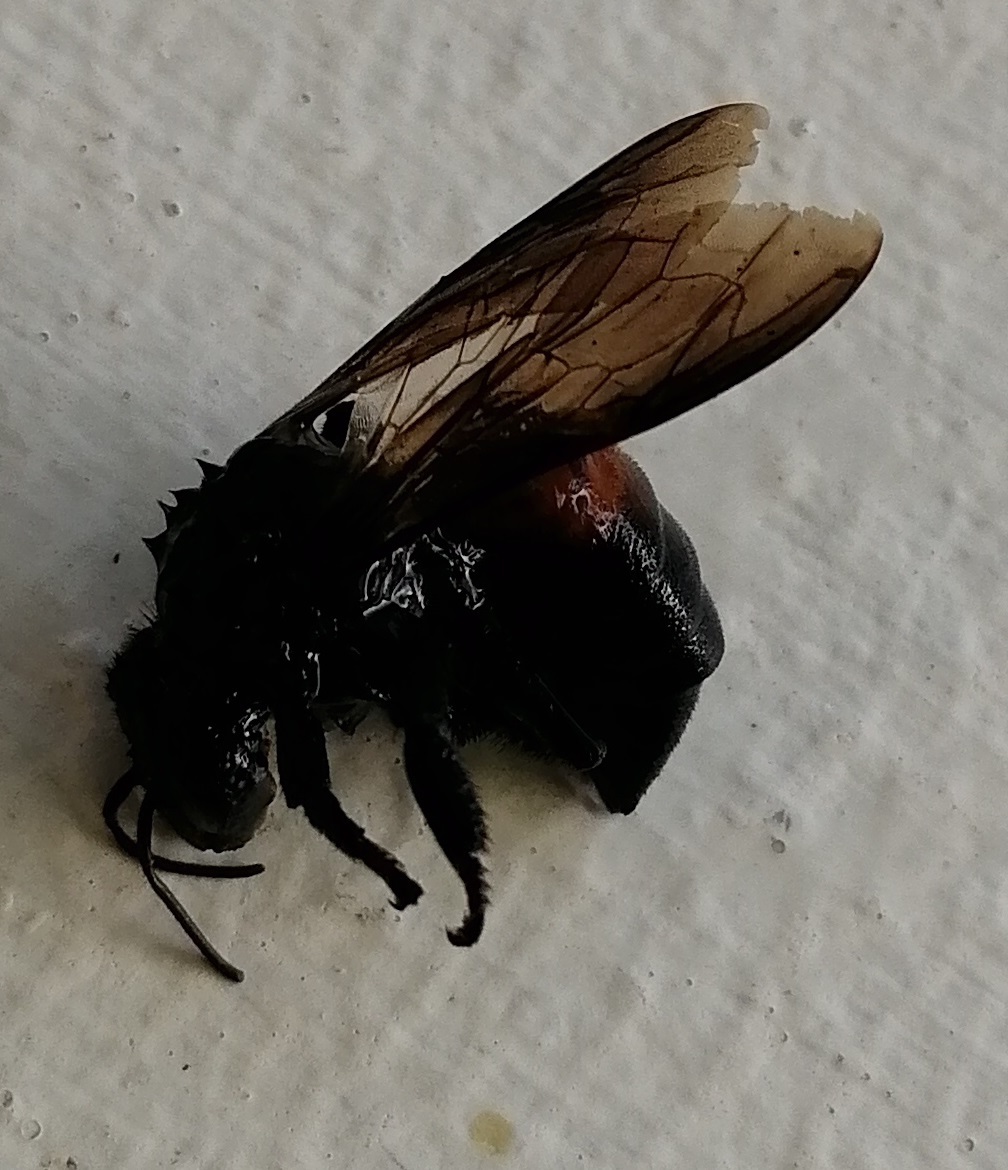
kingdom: Animalia
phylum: Arthropoda
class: Insecta
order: Hymenoptera
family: Apidae
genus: Apis
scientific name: Apis dorsata
